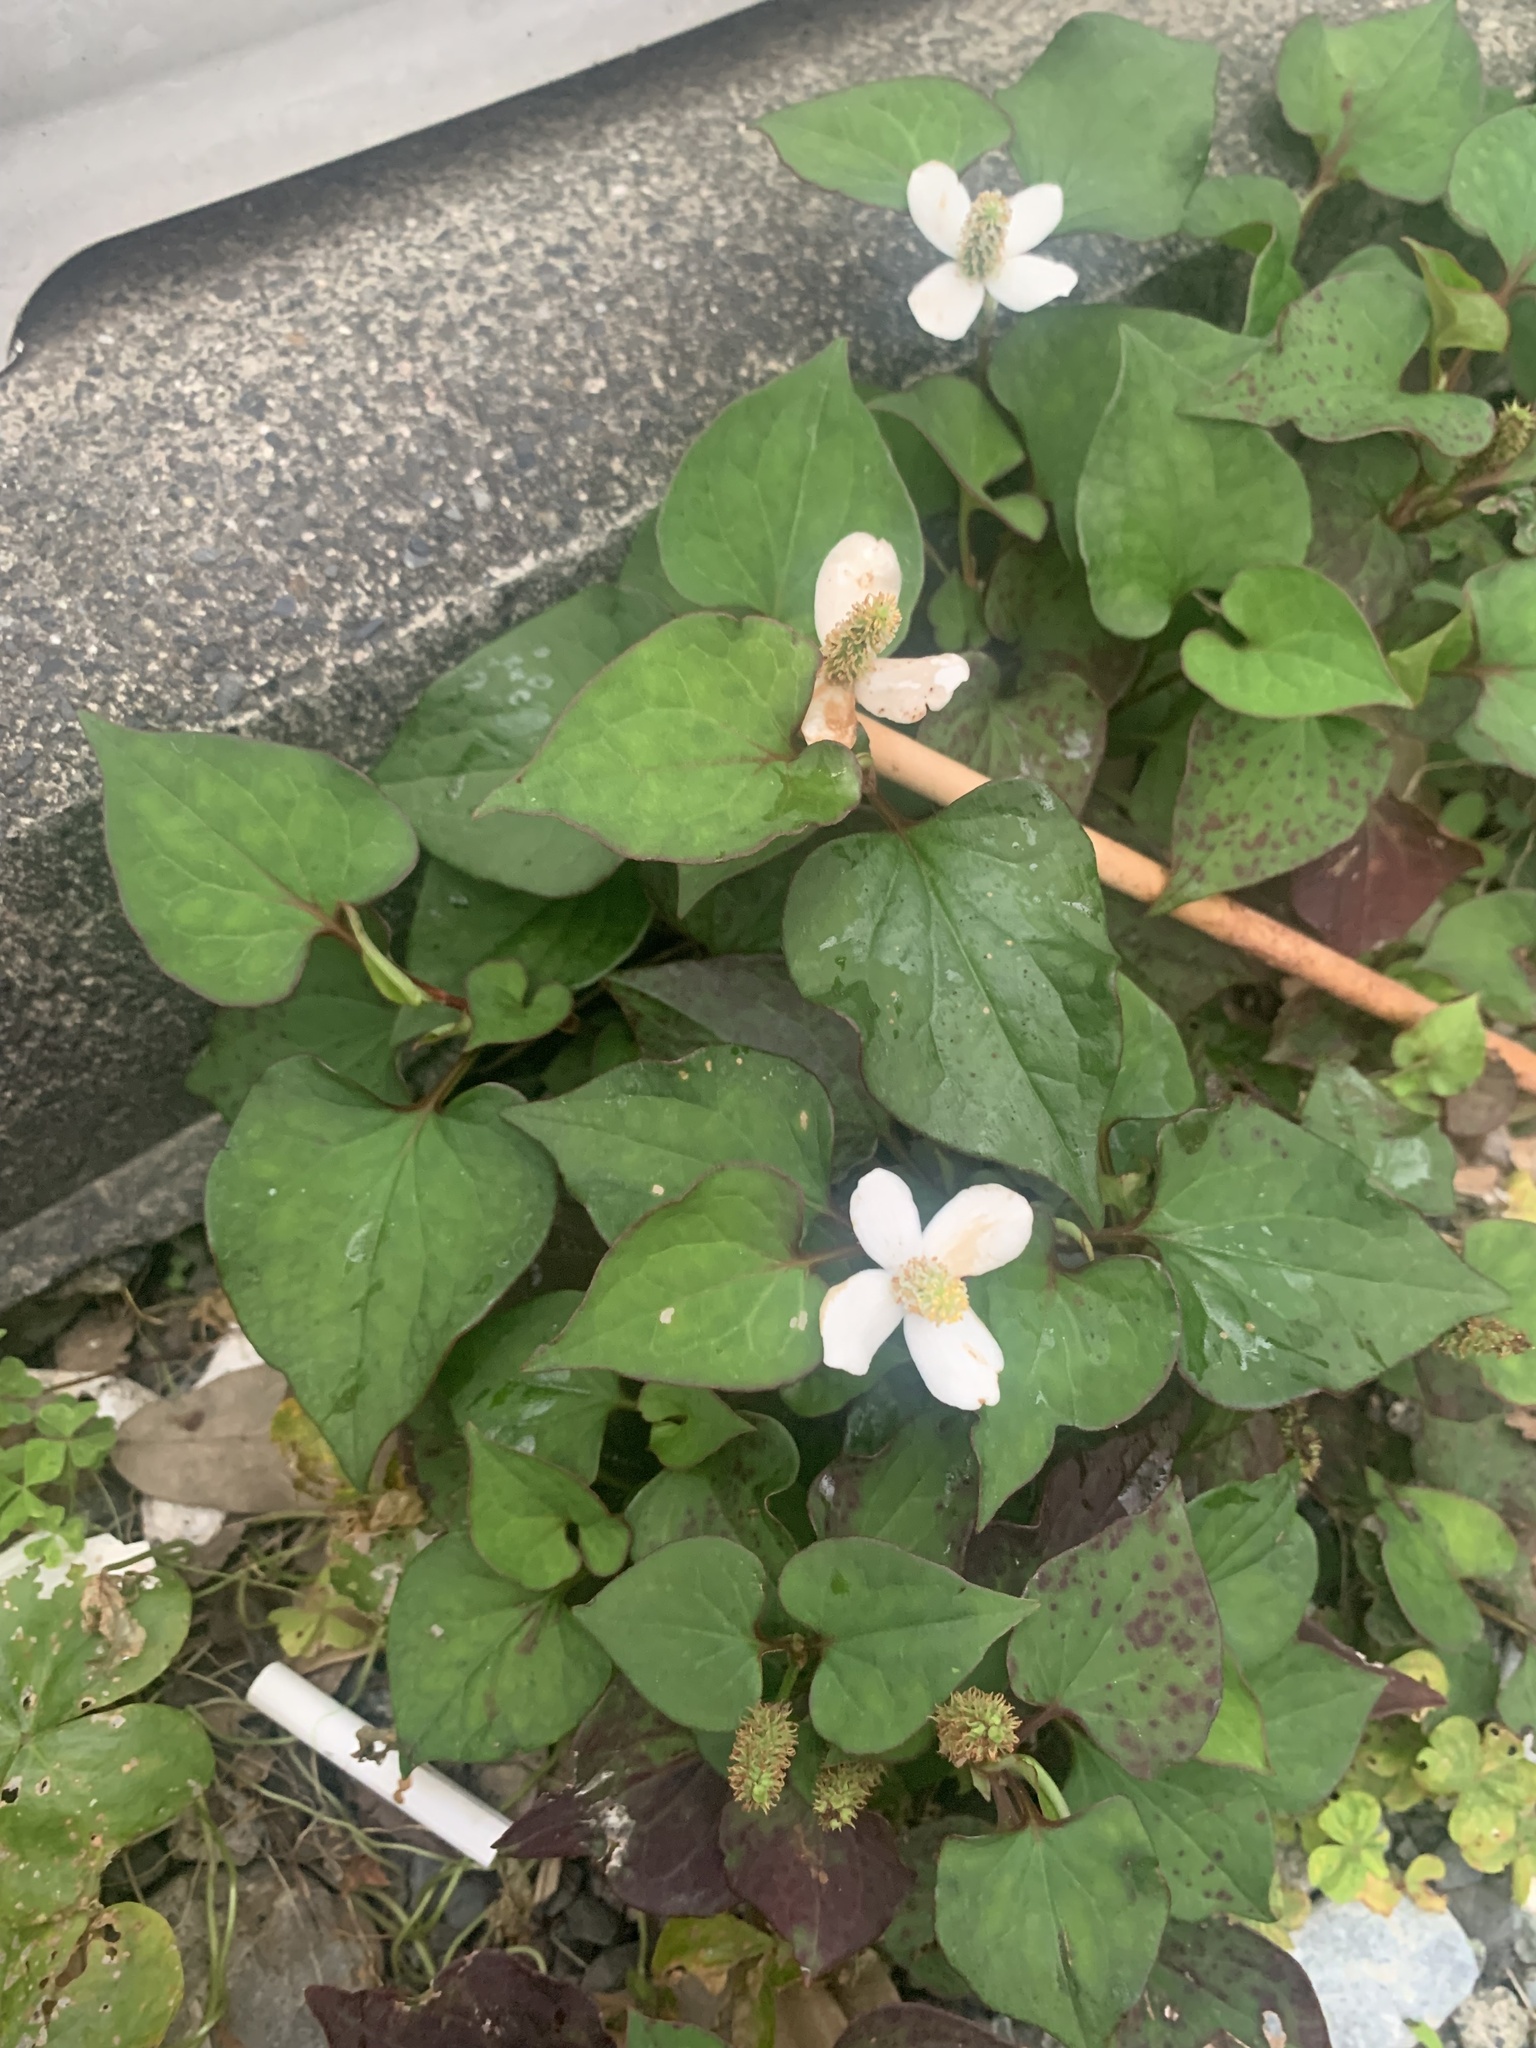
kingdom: Plantae
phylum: Tracheophyta
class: Magnoliopsida
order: Piperales
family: Saururaceae
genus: Houttuynia
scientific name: Houttuynia cordata
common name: Chameleon
